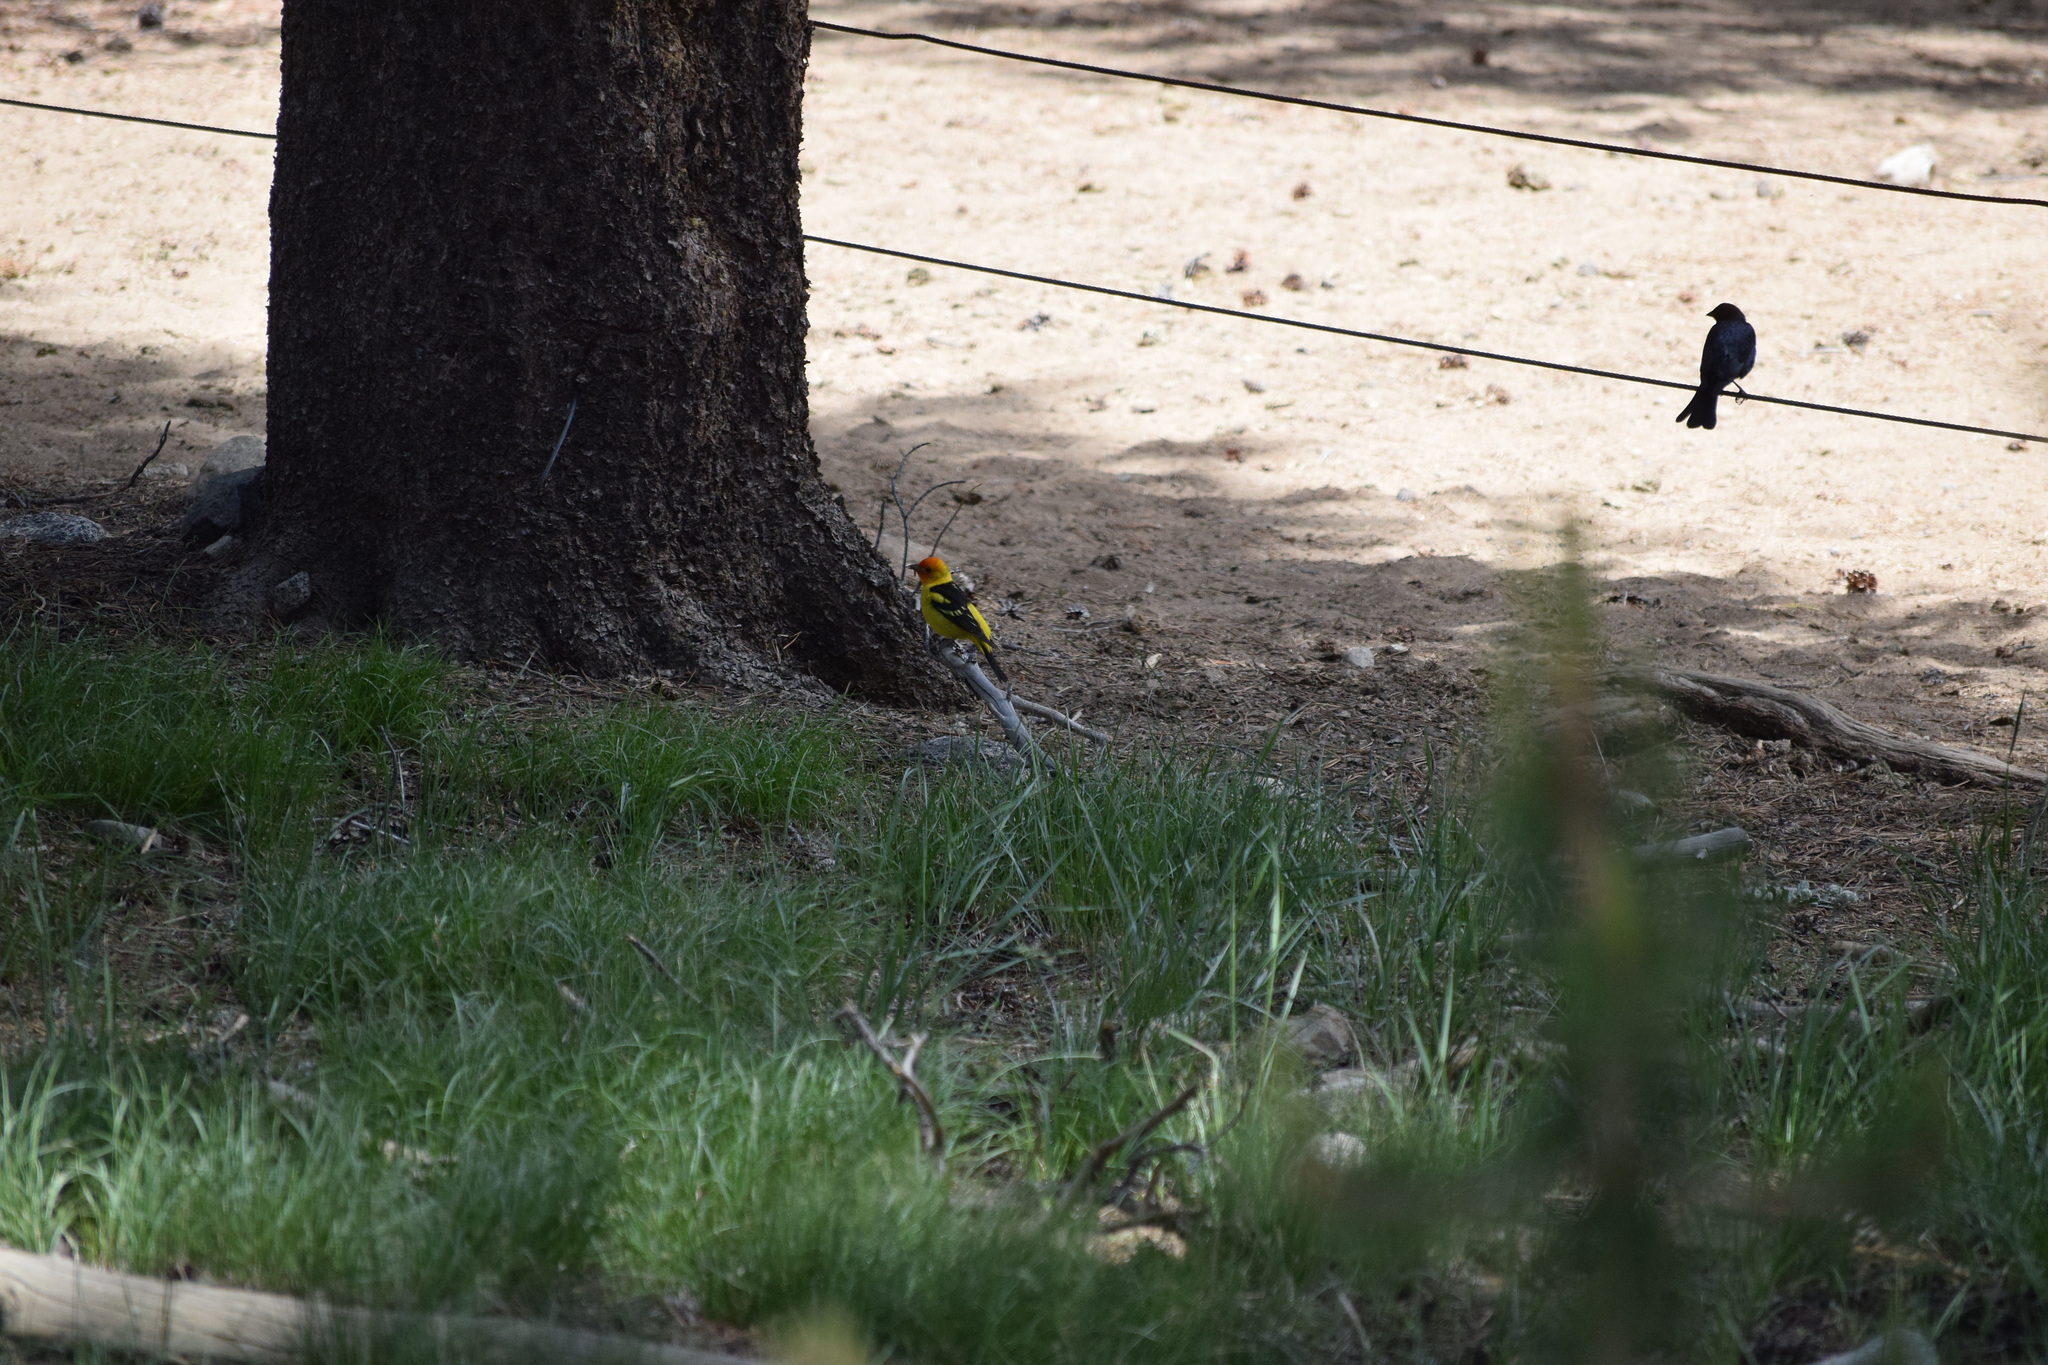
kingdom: Animalia
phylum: Chordata
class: Aves
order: Passeriformes
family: Cardinalidae
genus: Piranga
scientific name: Piranga ludoviciana
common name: Western tanager
